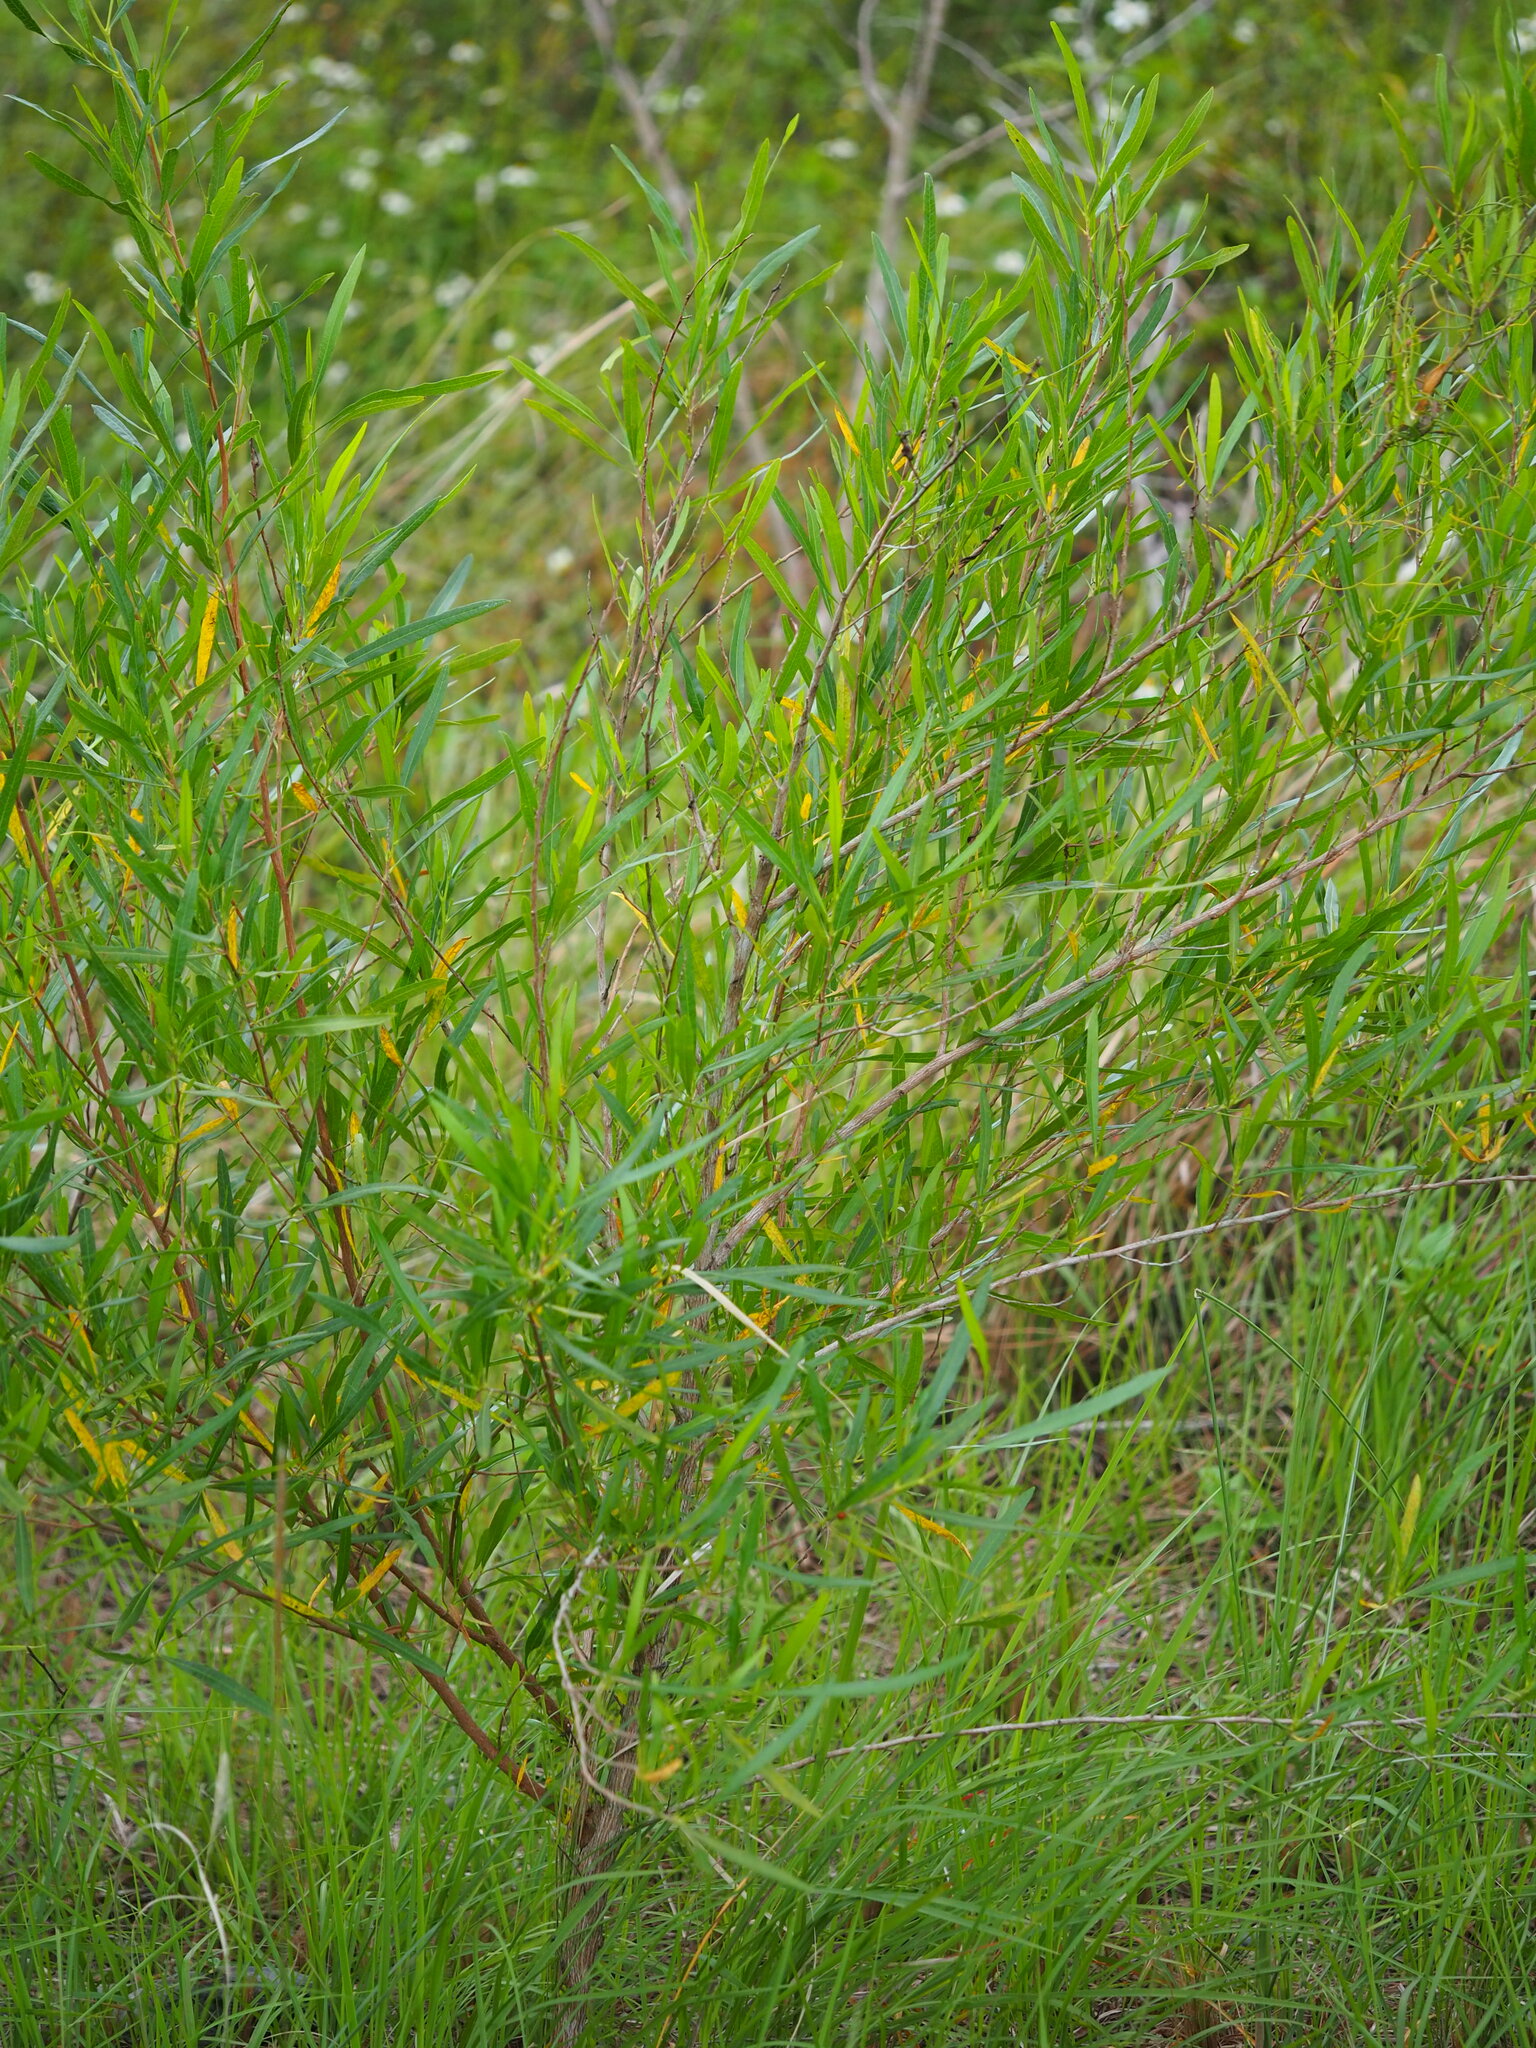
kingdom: Plantae
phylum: Tracheophyta
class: Magnoliopsida
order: Sapindales
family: Sapindaceae
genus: Dodonaea
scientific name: Dodonaea viscosa
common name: Hopbush
